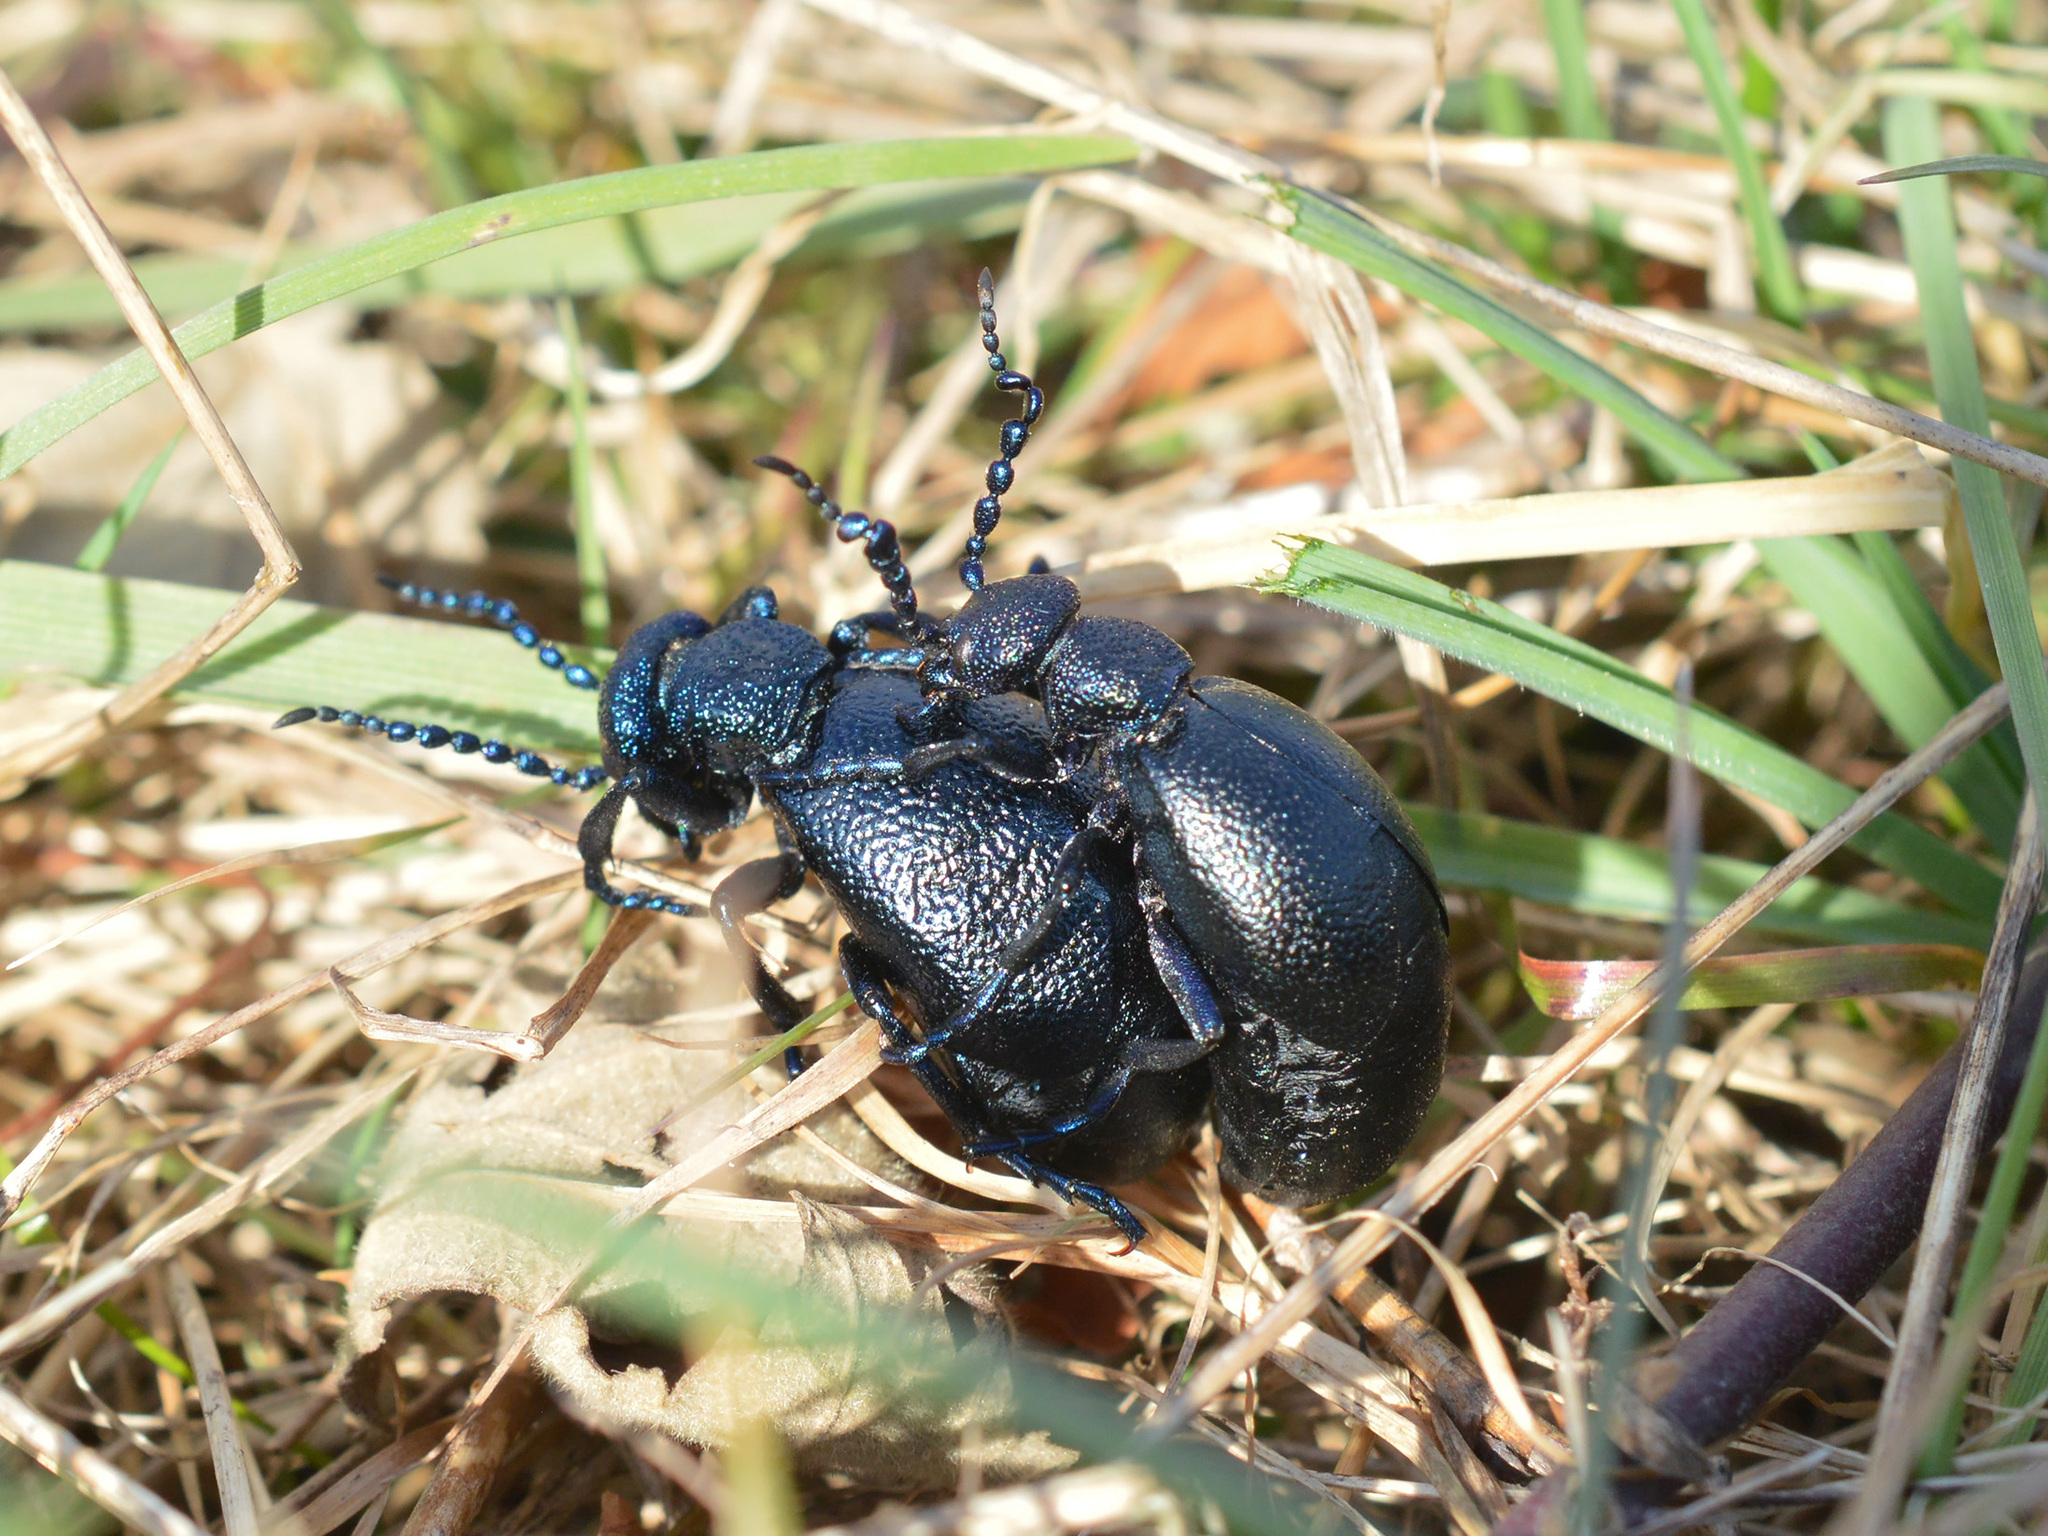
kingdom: Animalia
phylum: Arthropoda
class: Insecta
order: Coleoptera
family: Meloidae
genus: Meloe
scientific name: Meloe proscarabaeus
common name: Black oil-beetle
